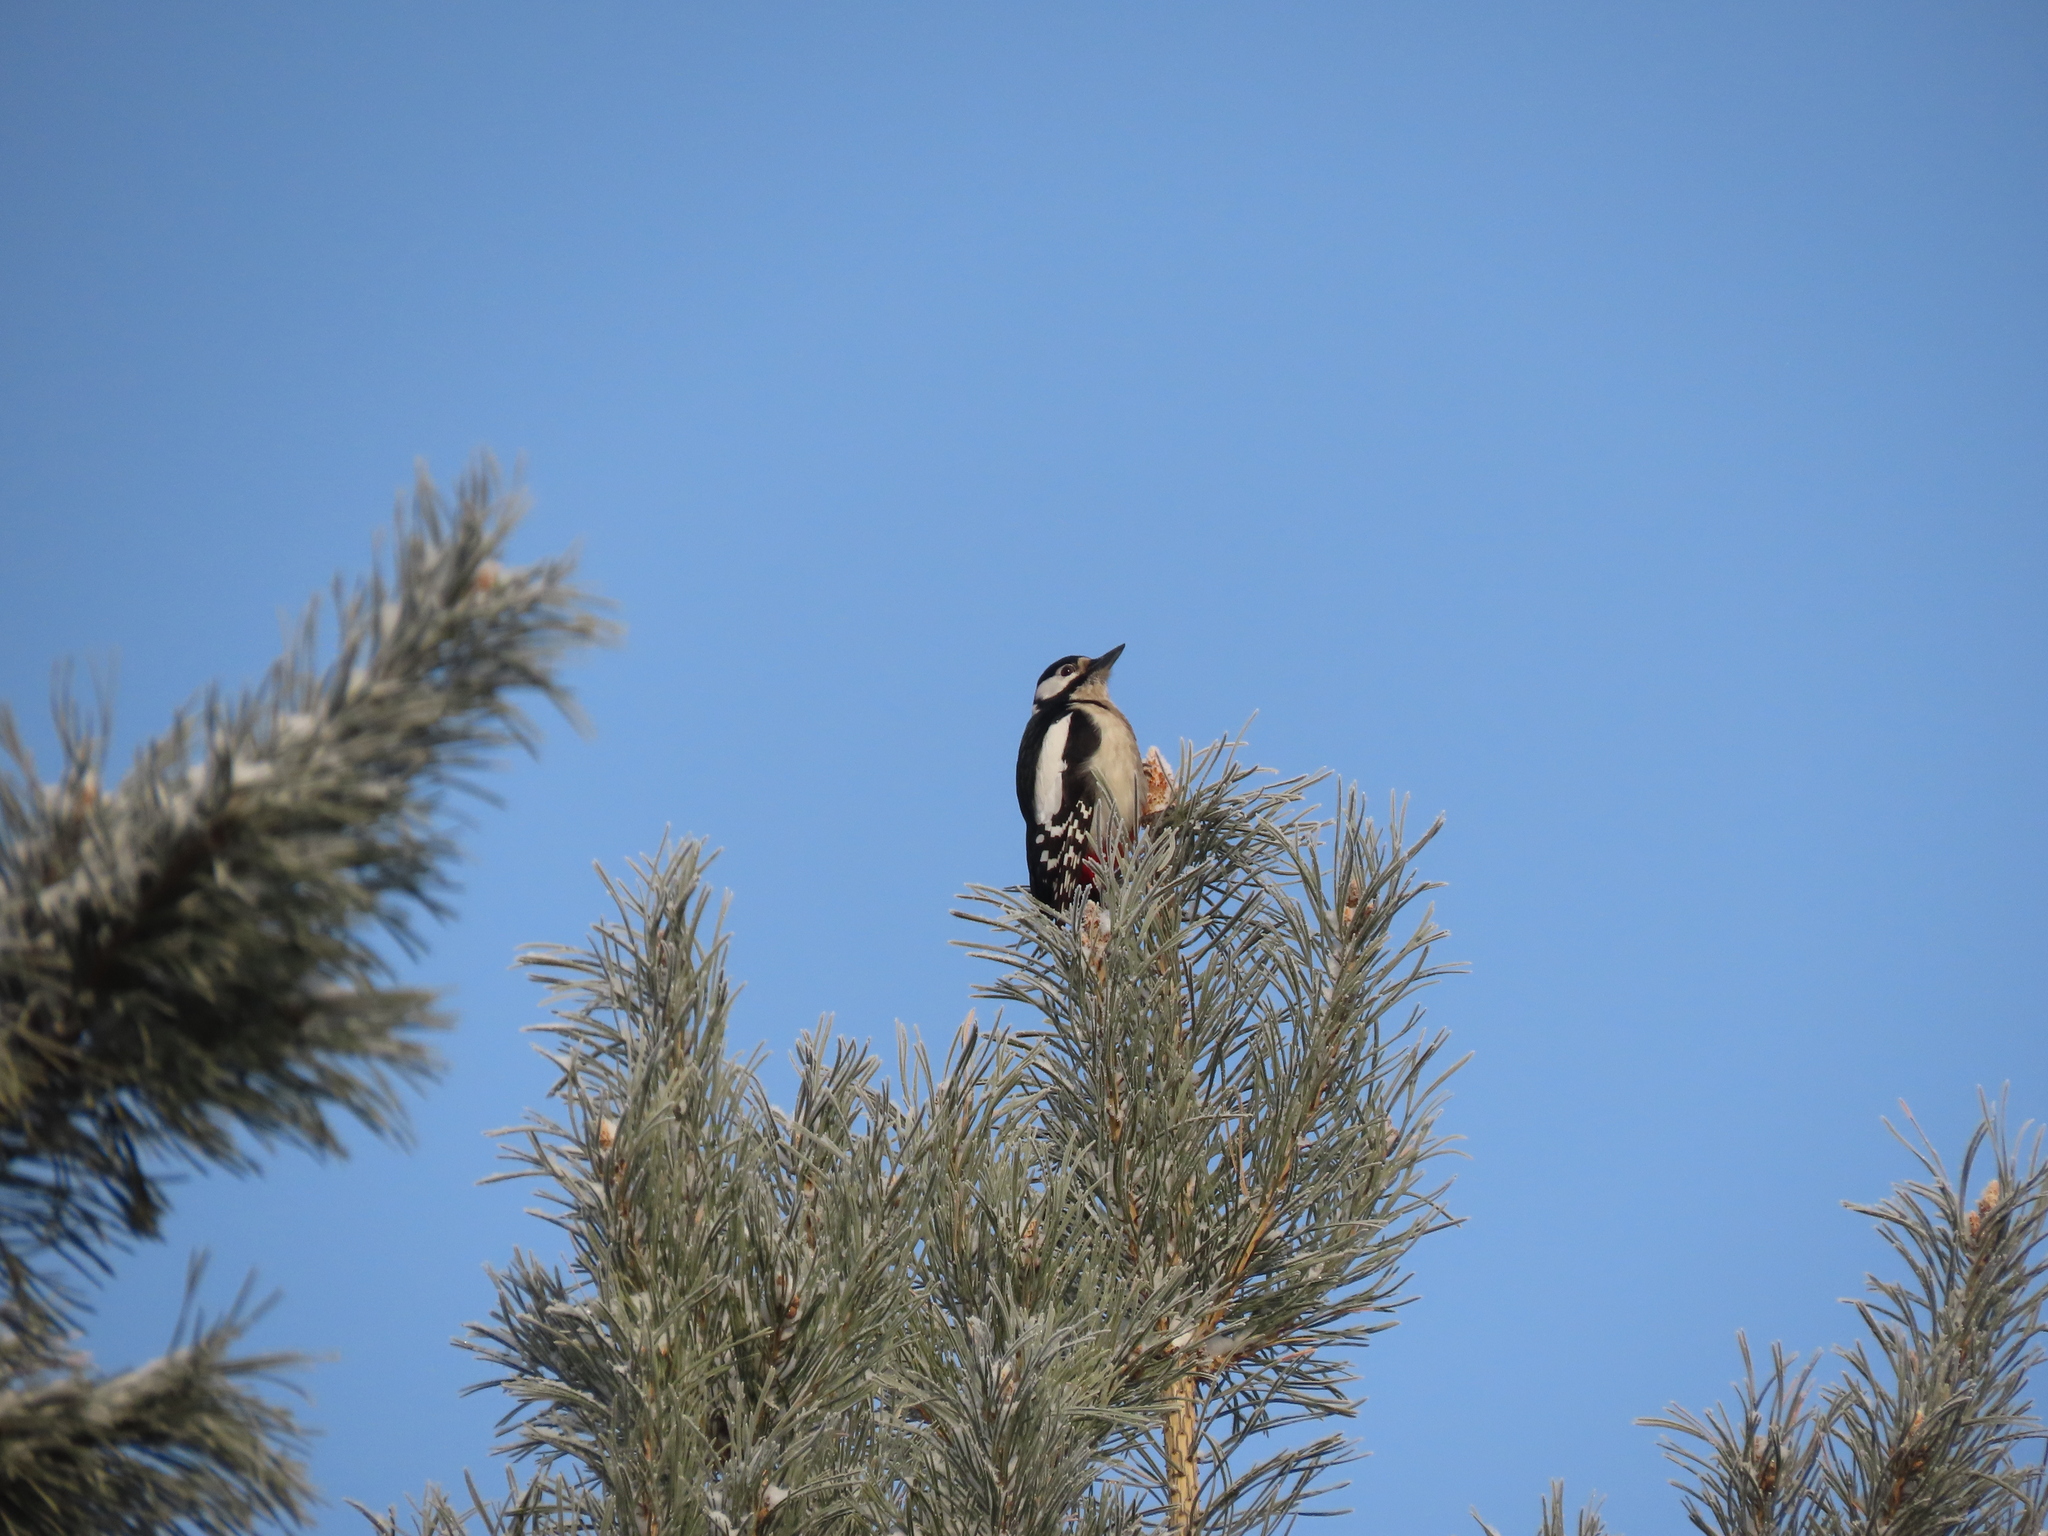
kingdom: Animalia
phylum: Chordata
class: Aves
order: Piciformes
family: Picidae
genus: Dendrocopos
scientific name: Dendrocopos major
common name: Great spotted woodpecker
